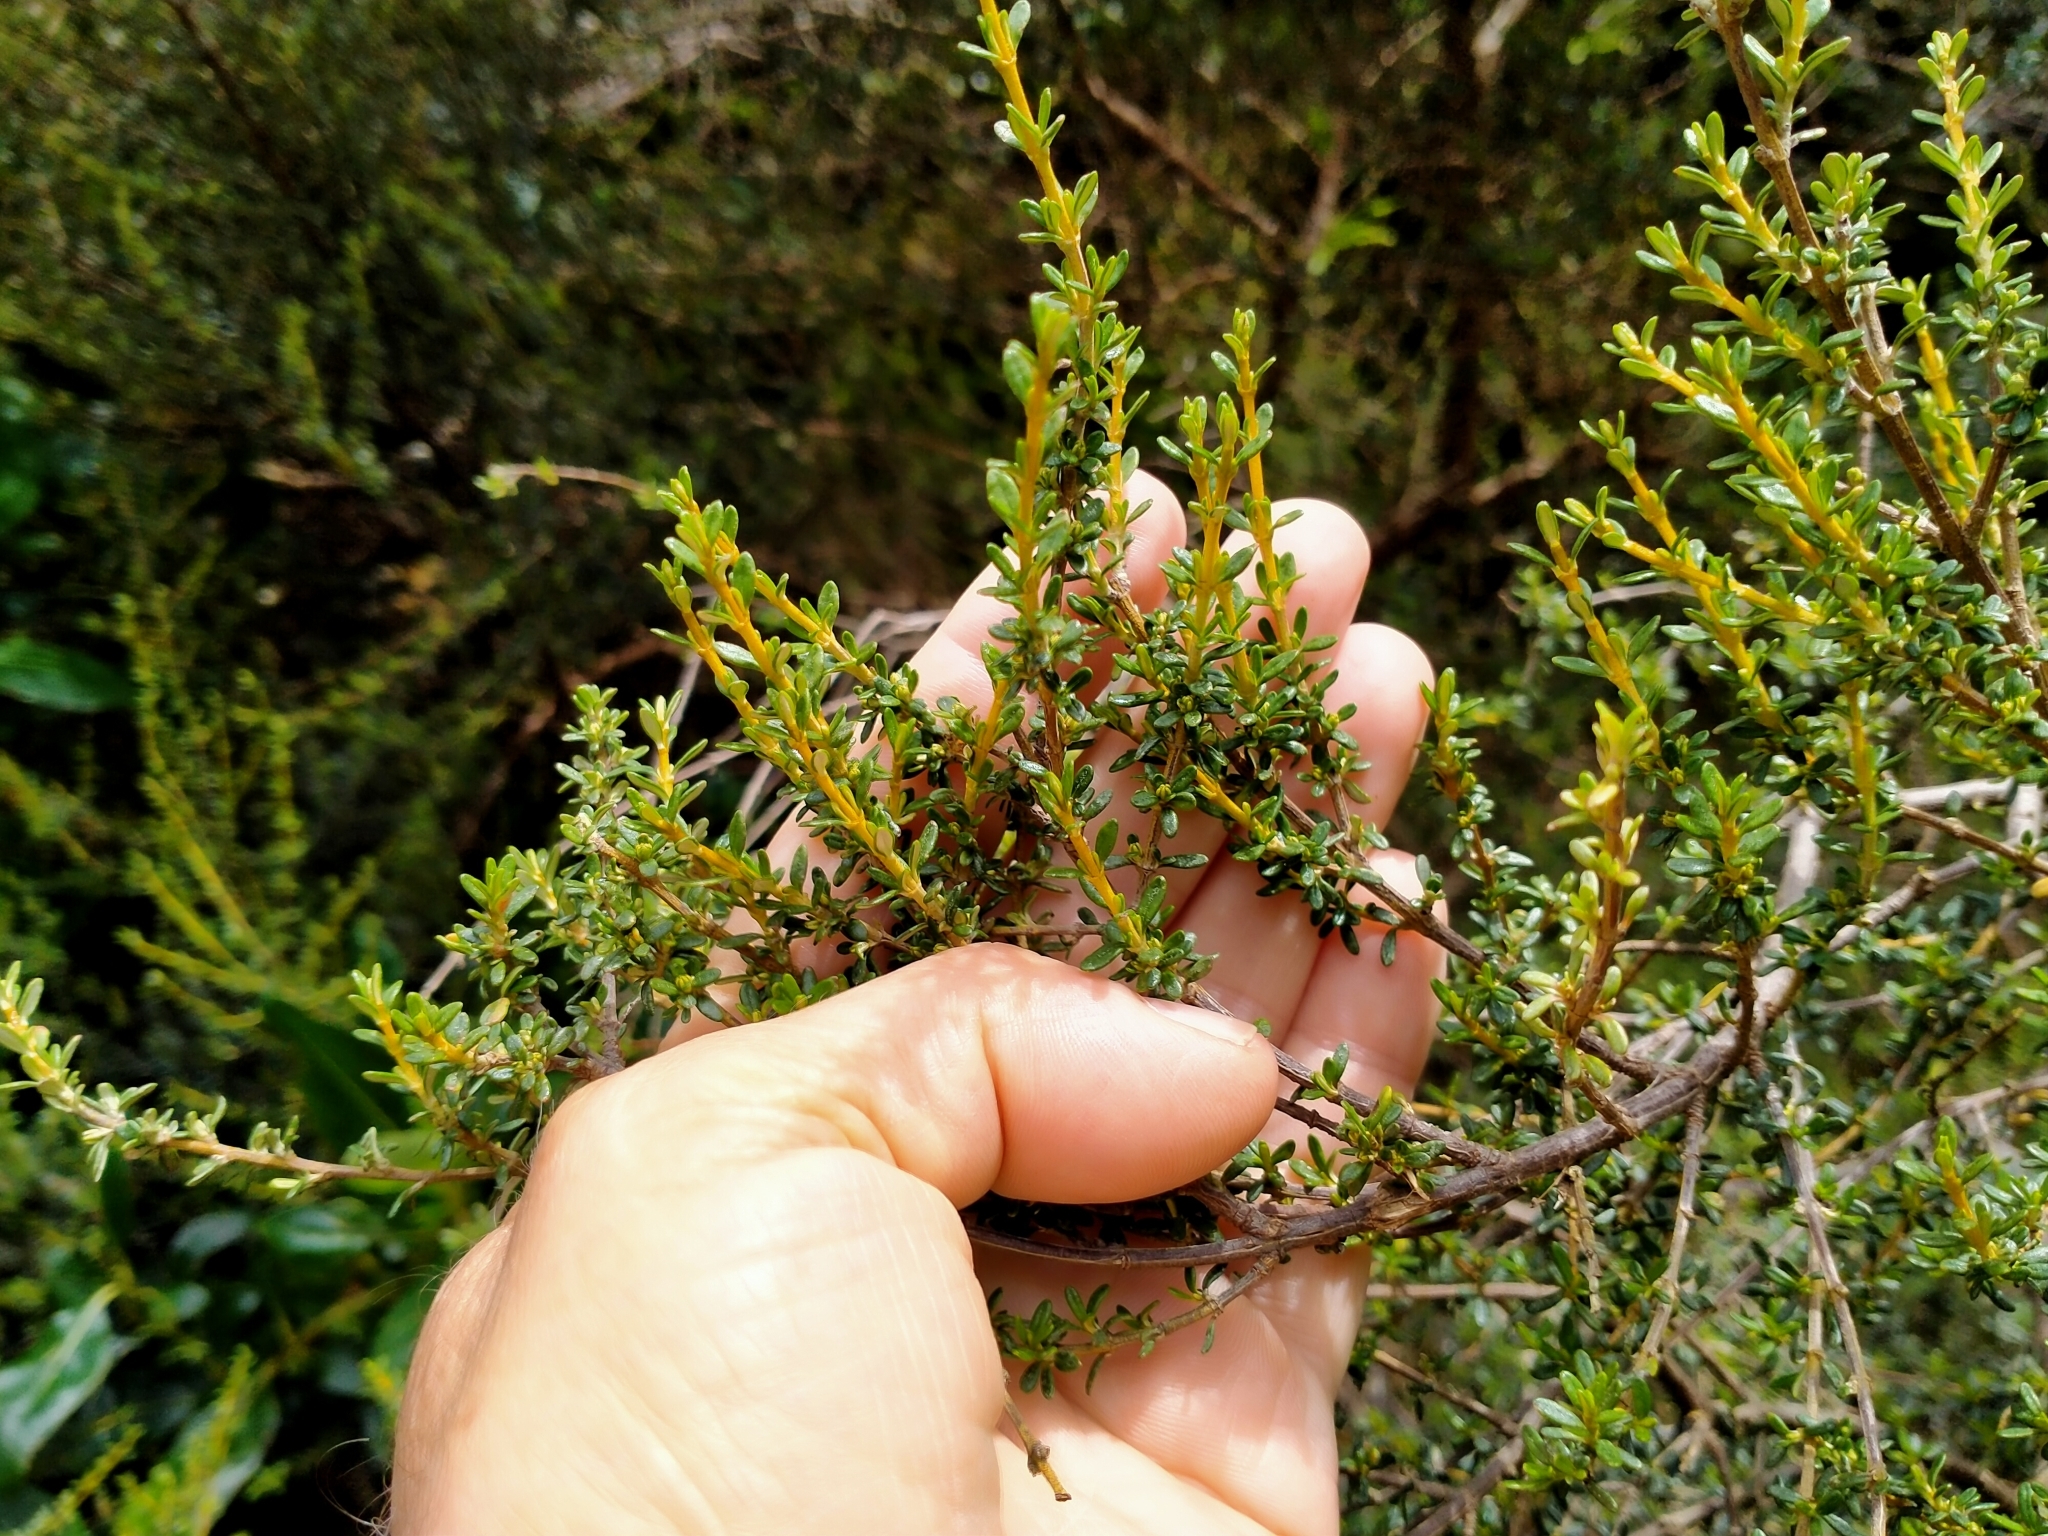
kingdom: Plantae
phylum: Tracheophyta
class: Magnoliopsida
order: Asterales
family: Asteraceae
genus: Olearia
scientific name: Olearia solandri
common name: Coastal daisybush
